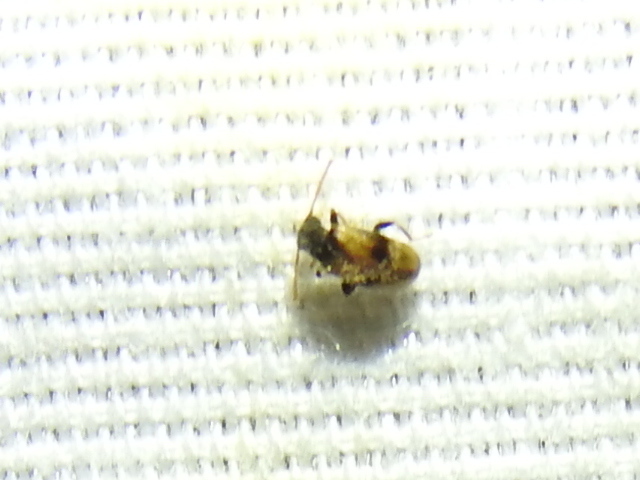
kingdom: Animalia
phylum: Arthropoda
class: Insecta
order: Coleoptera
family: Aderidae
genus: Zonantes
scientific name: Zonantes nubifer
